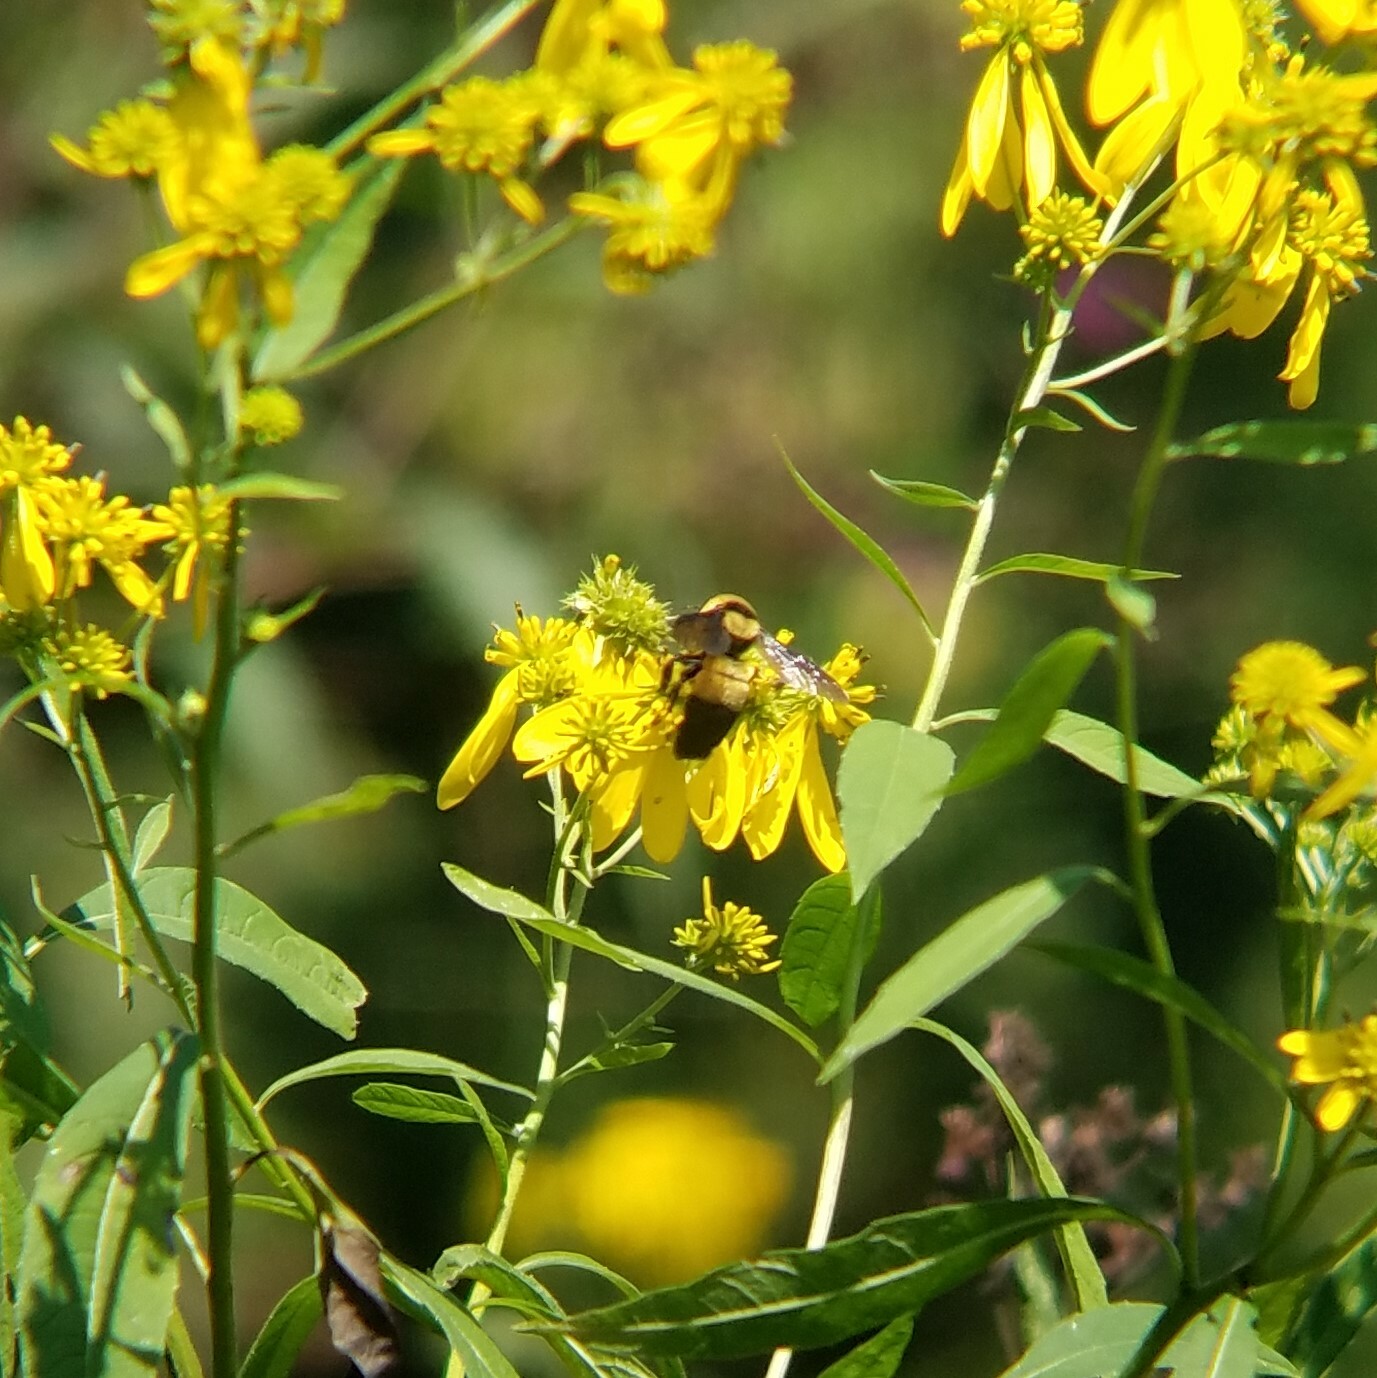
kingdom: Animalia
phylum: Arthropoda
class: Insecta
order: Hymenoptera
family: Apidae
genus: Bombus
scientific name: Bombus fraternus
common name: Southern plains bumble bee
